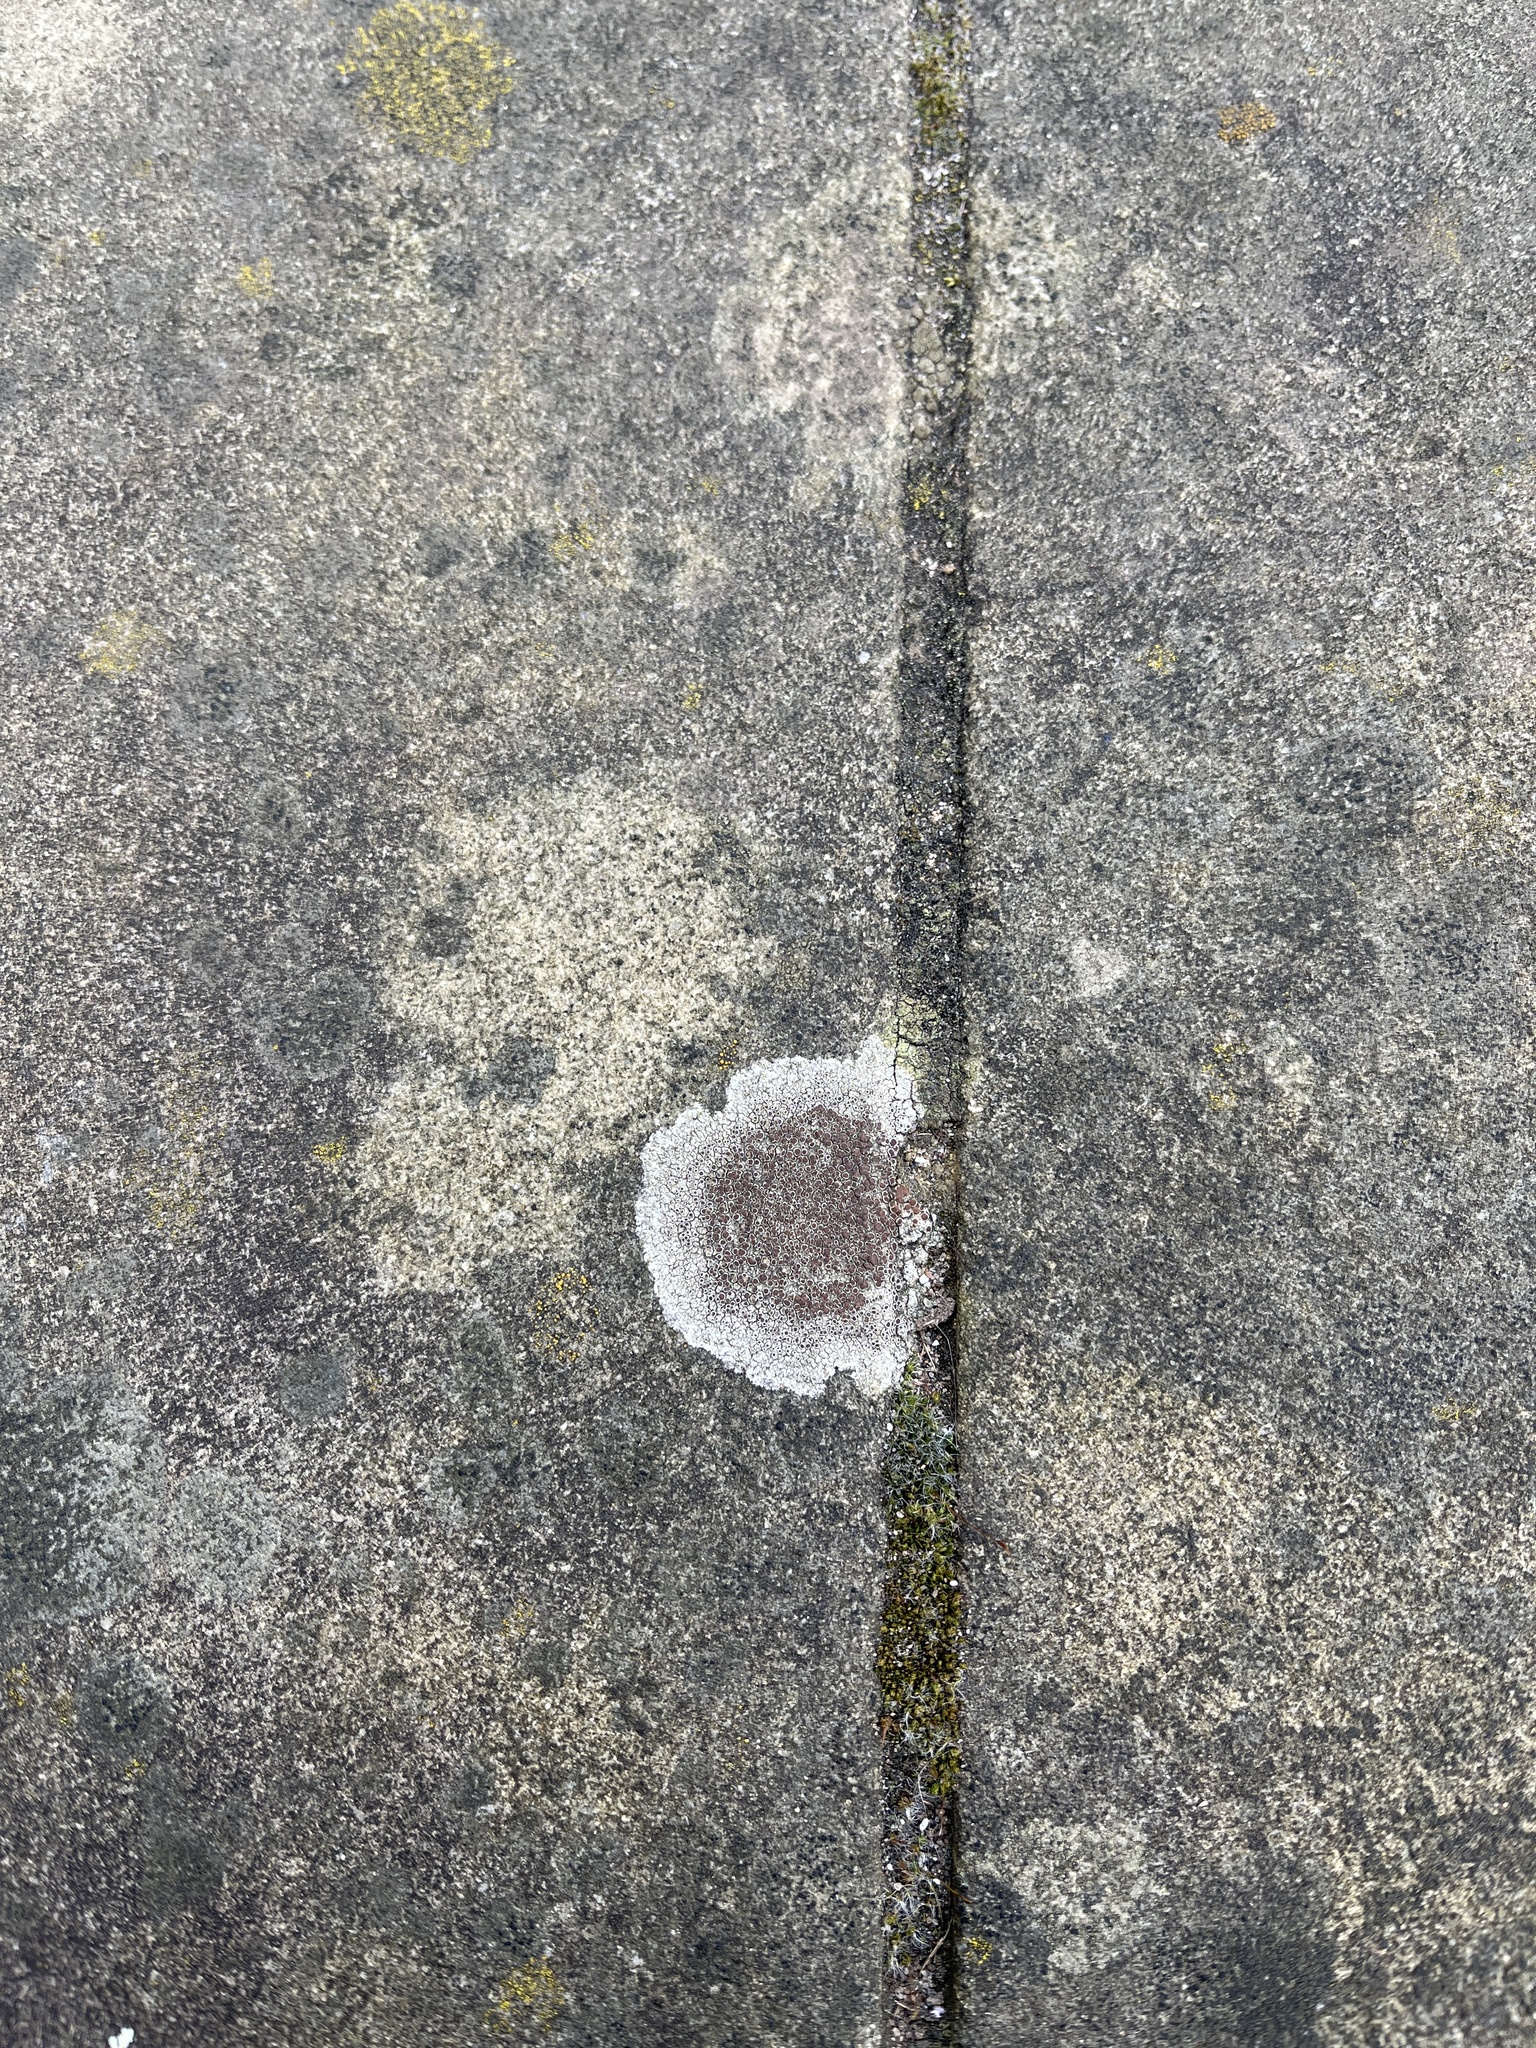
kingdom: Fungi
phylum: Ascomycota
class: Lecanoromycetes
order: Lecanorales
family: Lecanoraceae
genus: Lecanora
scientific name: Lecanora campestris
